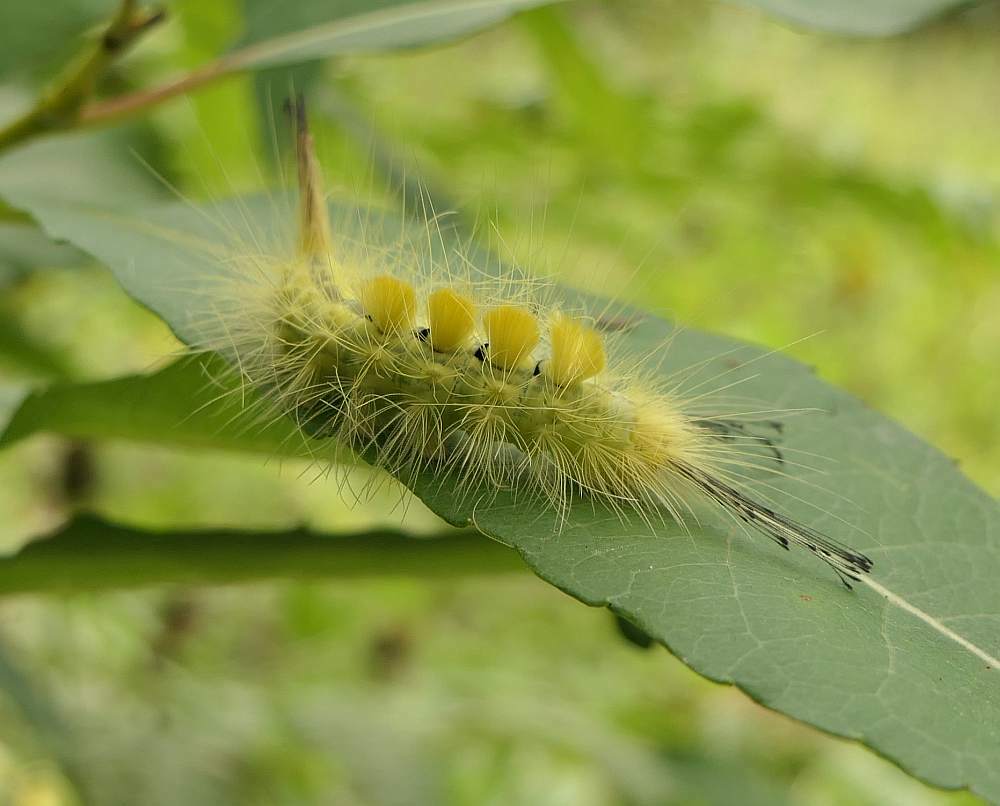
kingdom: Animalia
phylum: Arthropoda
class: Insecta
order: Lepidoptera
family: Erebidae
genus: Orgyia
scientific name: Orgyia definita
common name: Definite tussock moth
